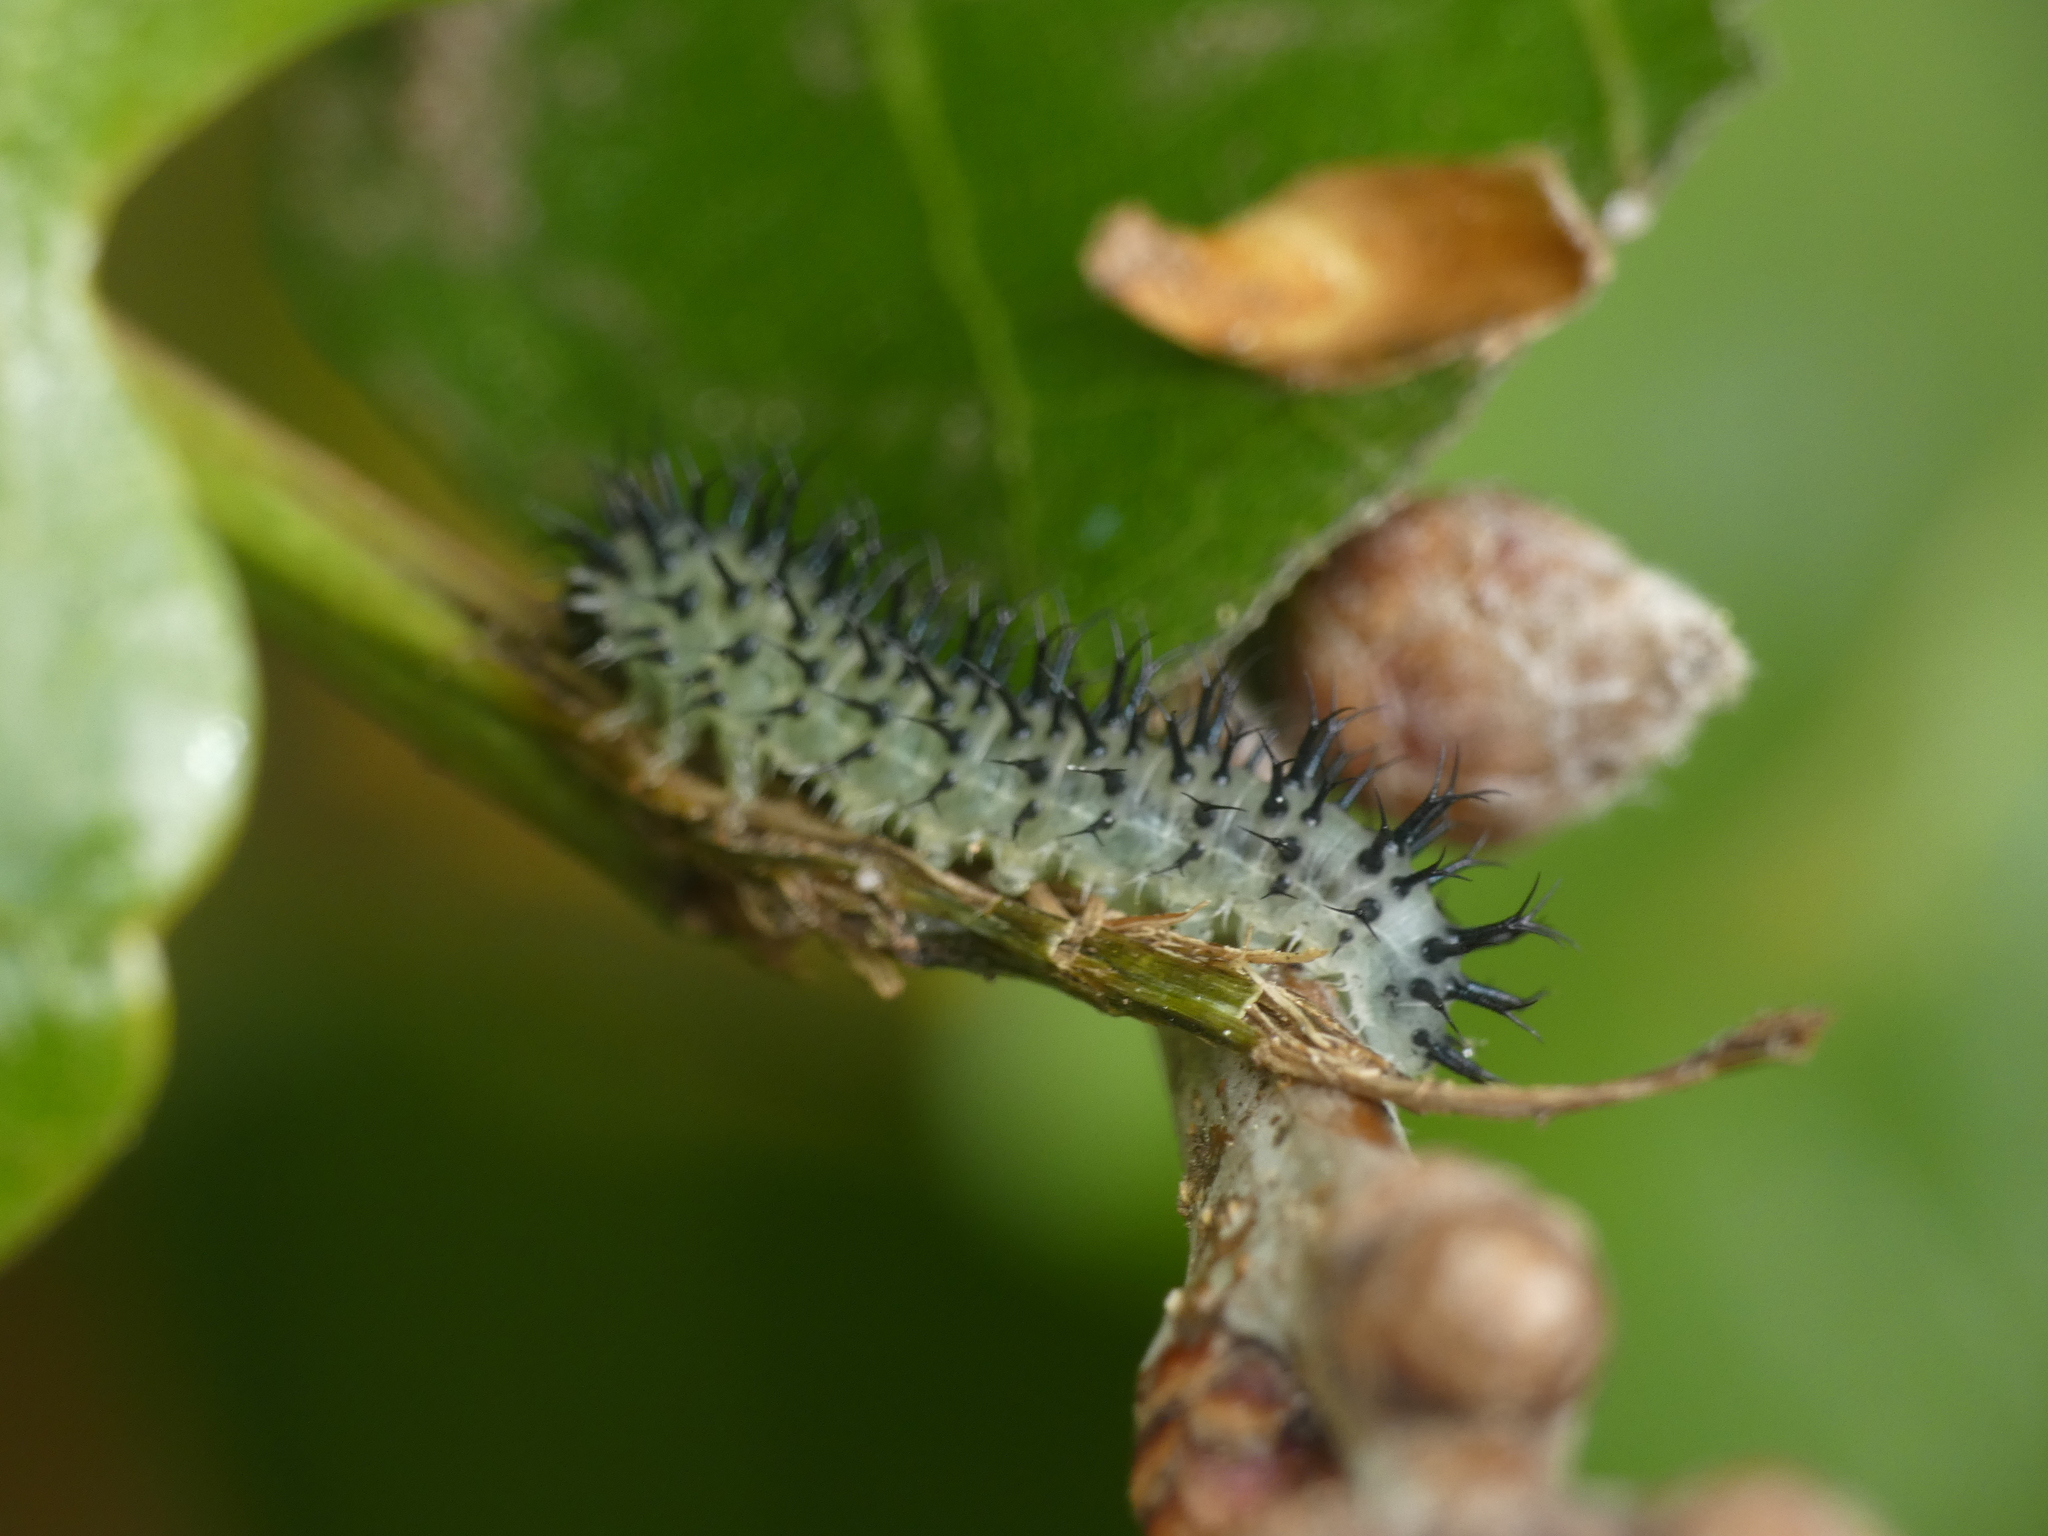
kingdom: Animalia
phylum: Arthropoda
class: Insecta
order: Hymenoptera
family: Tenthredinidae
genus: Periclista
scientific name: Periclista pubescens
